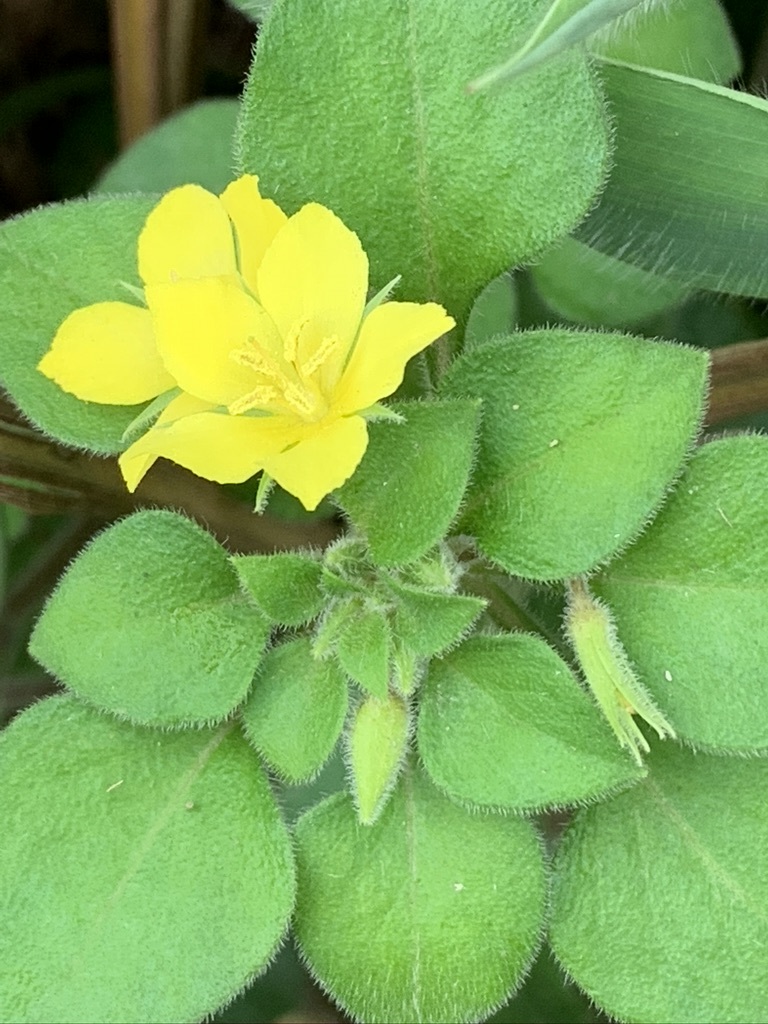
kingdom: Plantae
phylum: Tracheophyta
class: Magnoliopsida
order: Ericales
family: Primulaceae
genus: Lysimachia
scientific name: Lysimachia remota
